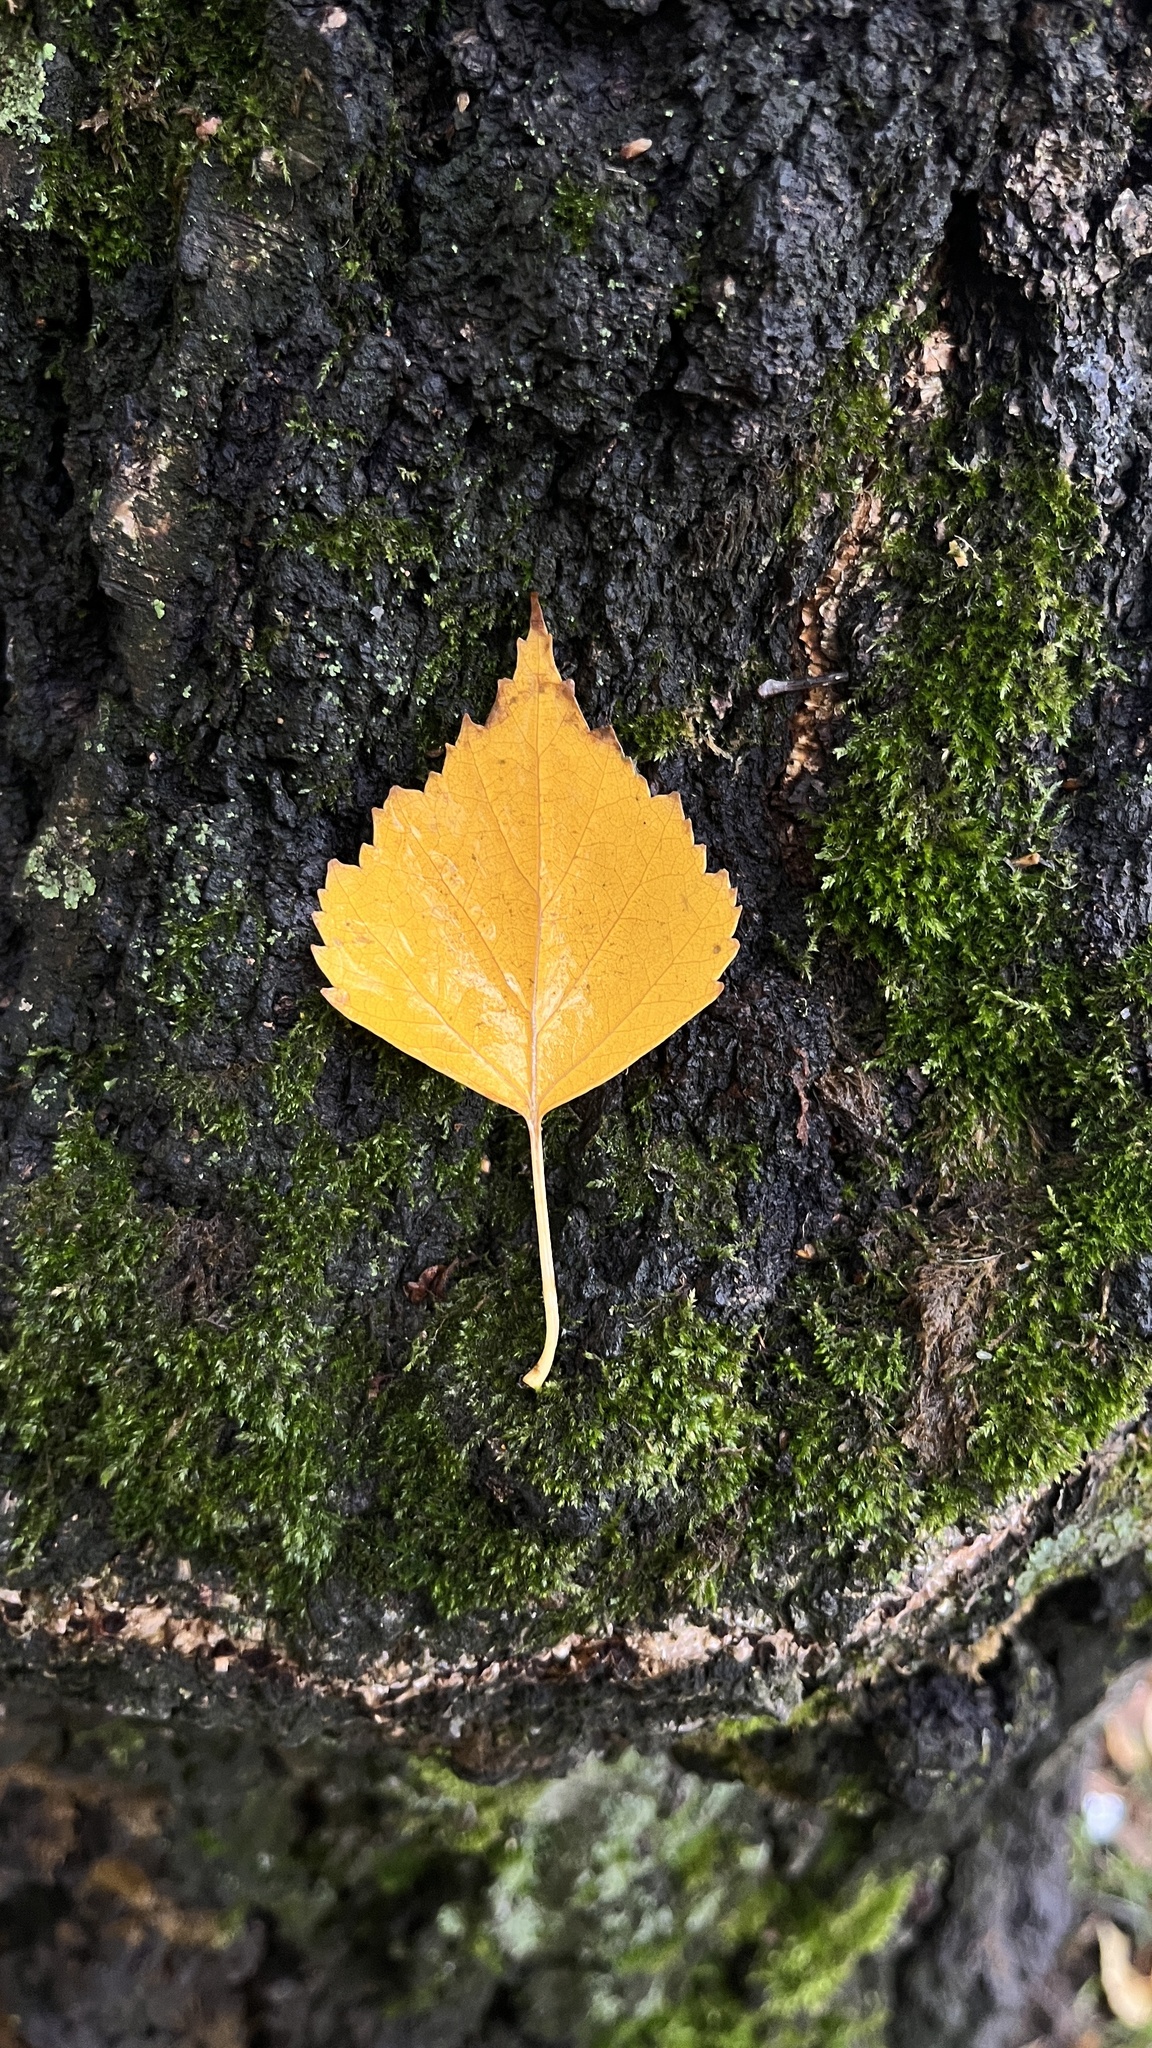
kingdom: Plantae
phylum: Tracheophyta
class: Magnoliopsida
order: Fagales
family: Betulaceae
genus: Betula
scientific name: Betula pendula
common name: Silver birch
